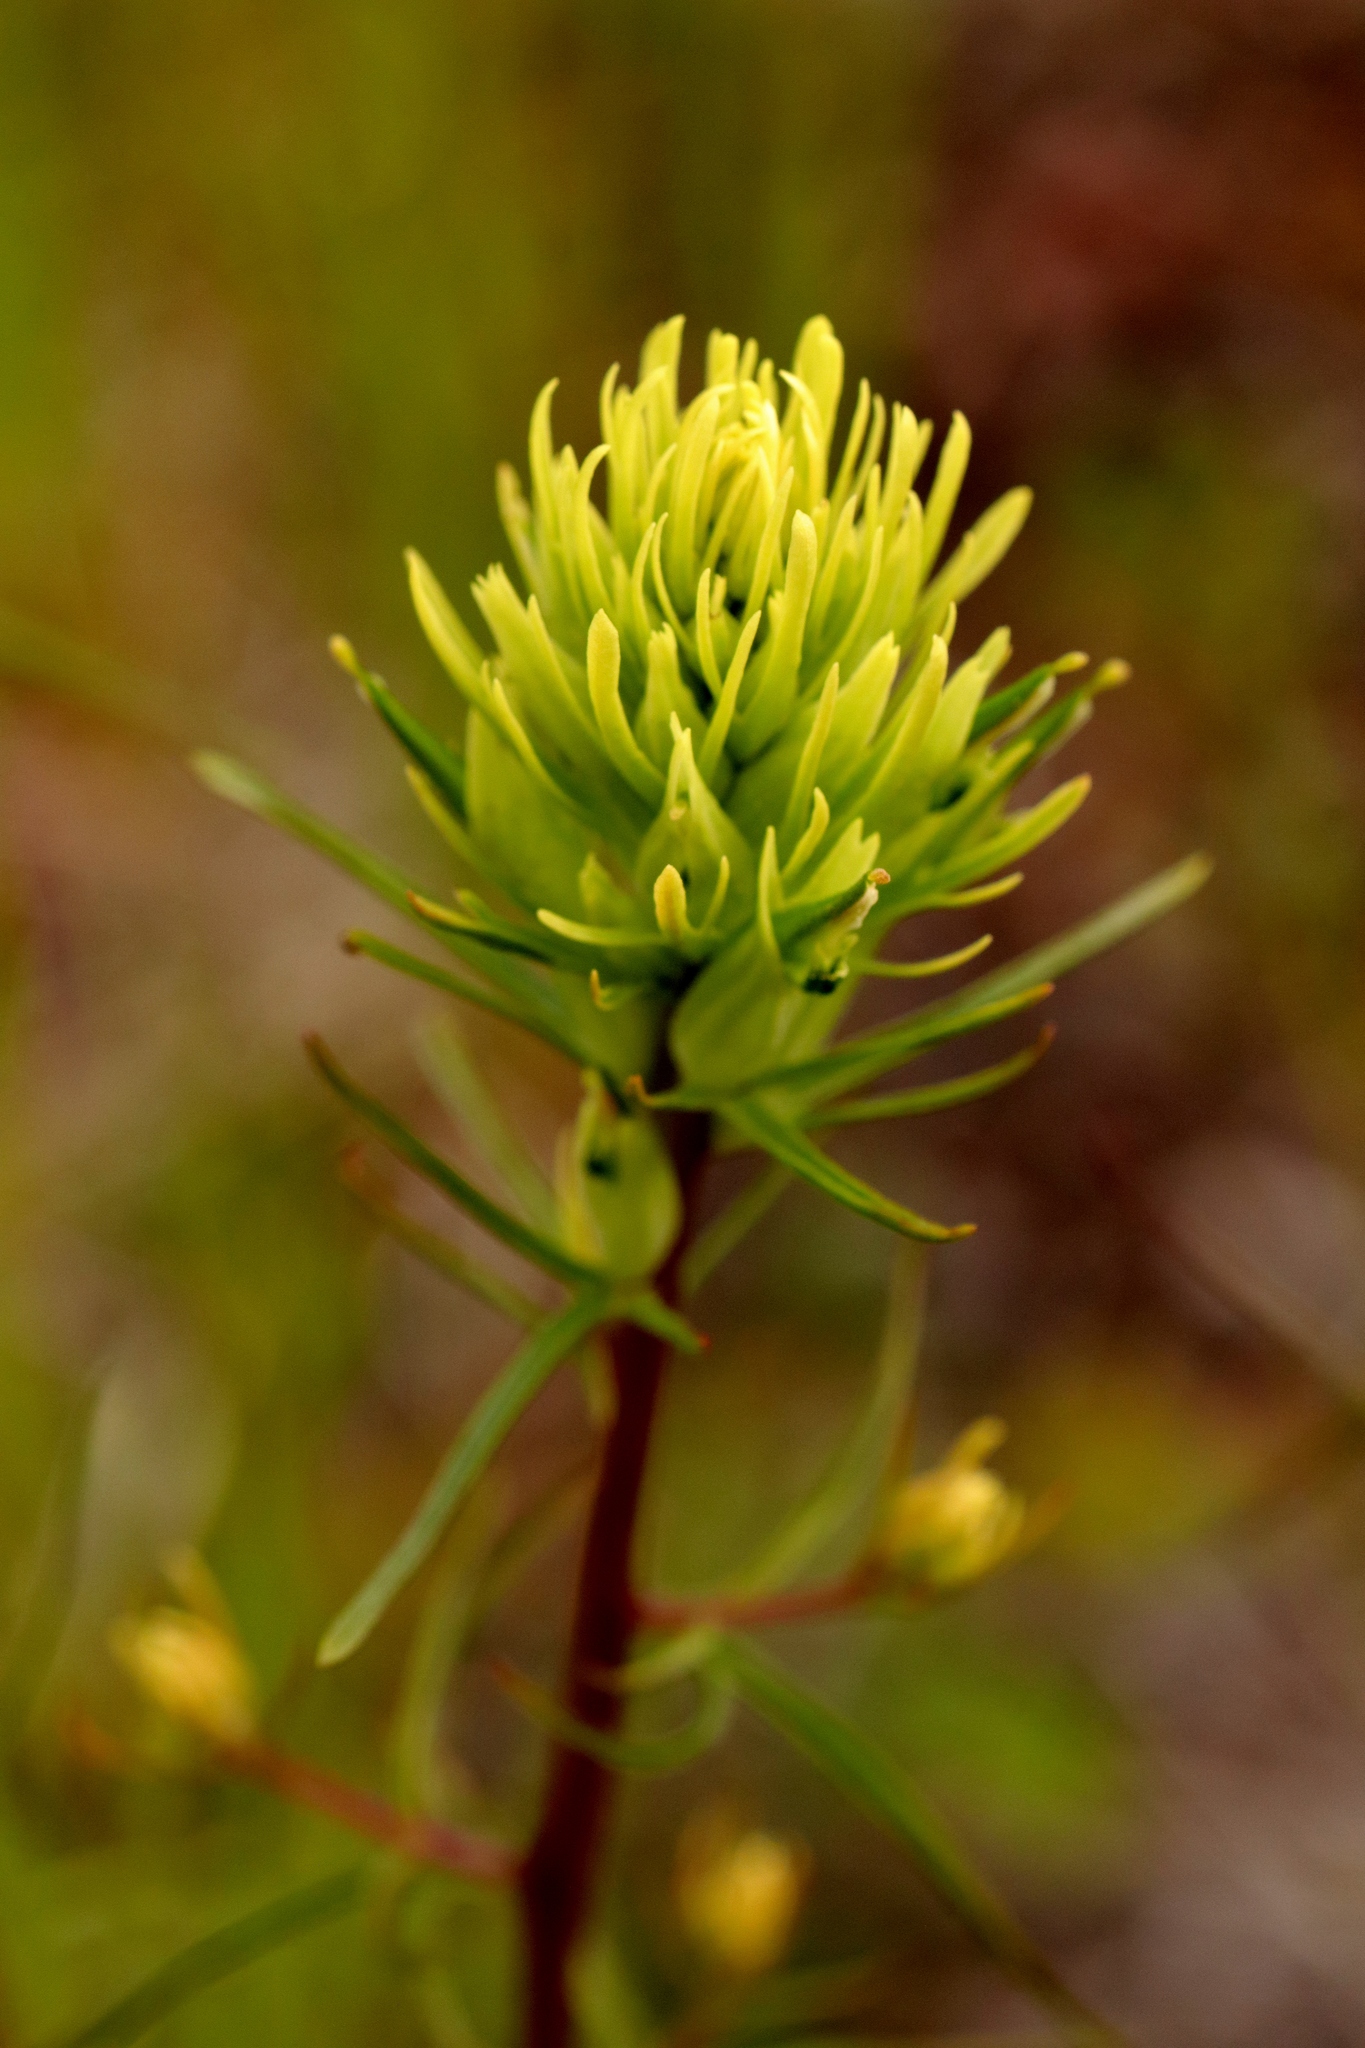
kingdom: Plantae
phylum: Tracheophyta
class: Magnoliopsida
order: Lamiales
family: Orobanchaceae
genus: Castilleja
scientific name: Castilleja lutescens
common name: Yellowish paintbrush
